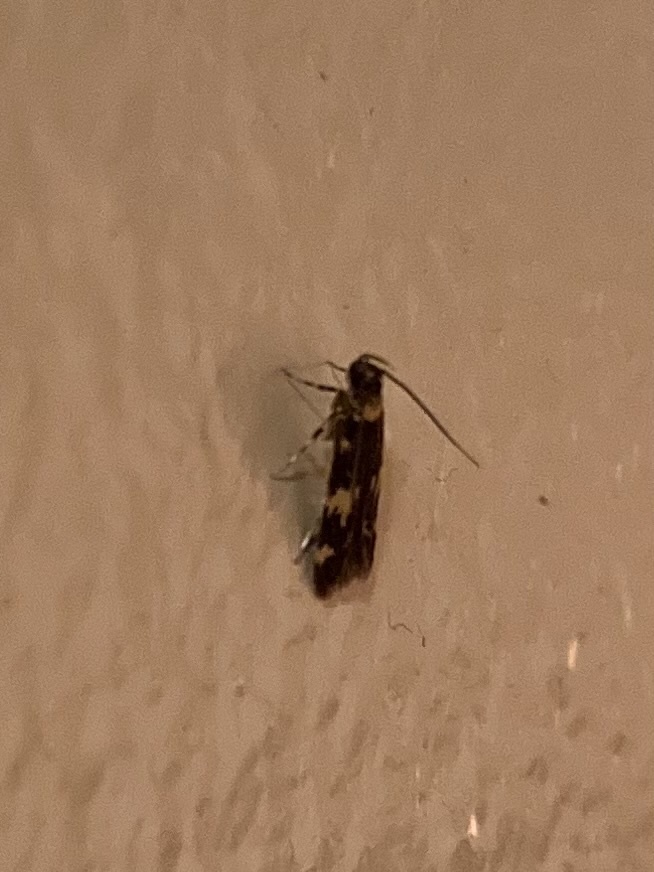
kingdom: Animalia
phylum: Arthropoda
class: Insecta
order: Lepidoptera
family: Autostichidae
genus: Oegoconia
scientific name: Oegoconia quadripuncta
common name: Four-spotted obscure
